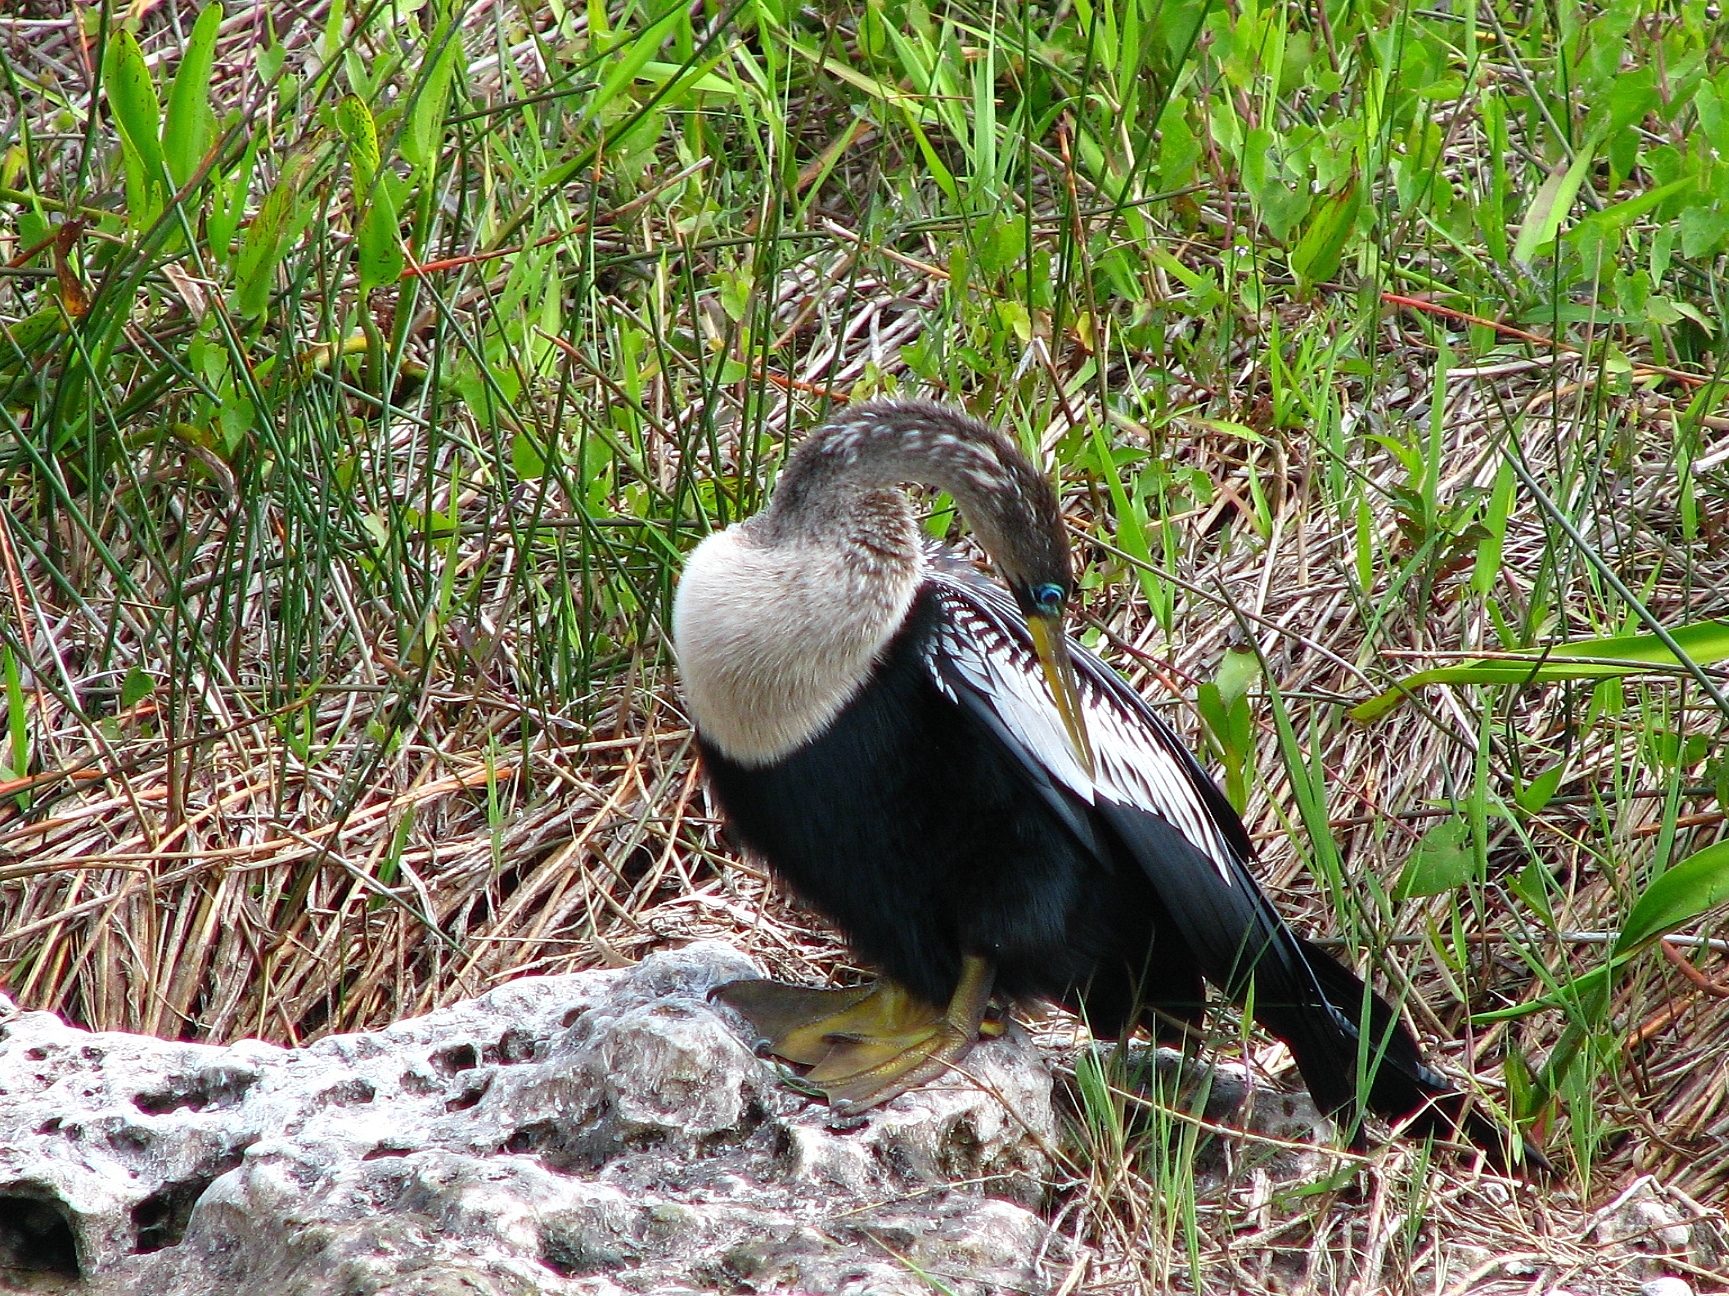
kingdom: Animalia
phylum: Chordata
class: Aves
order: Suliformes
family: Anhingidae
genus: Anhinga
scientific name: Anhinga anhinga
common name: Anhinga
